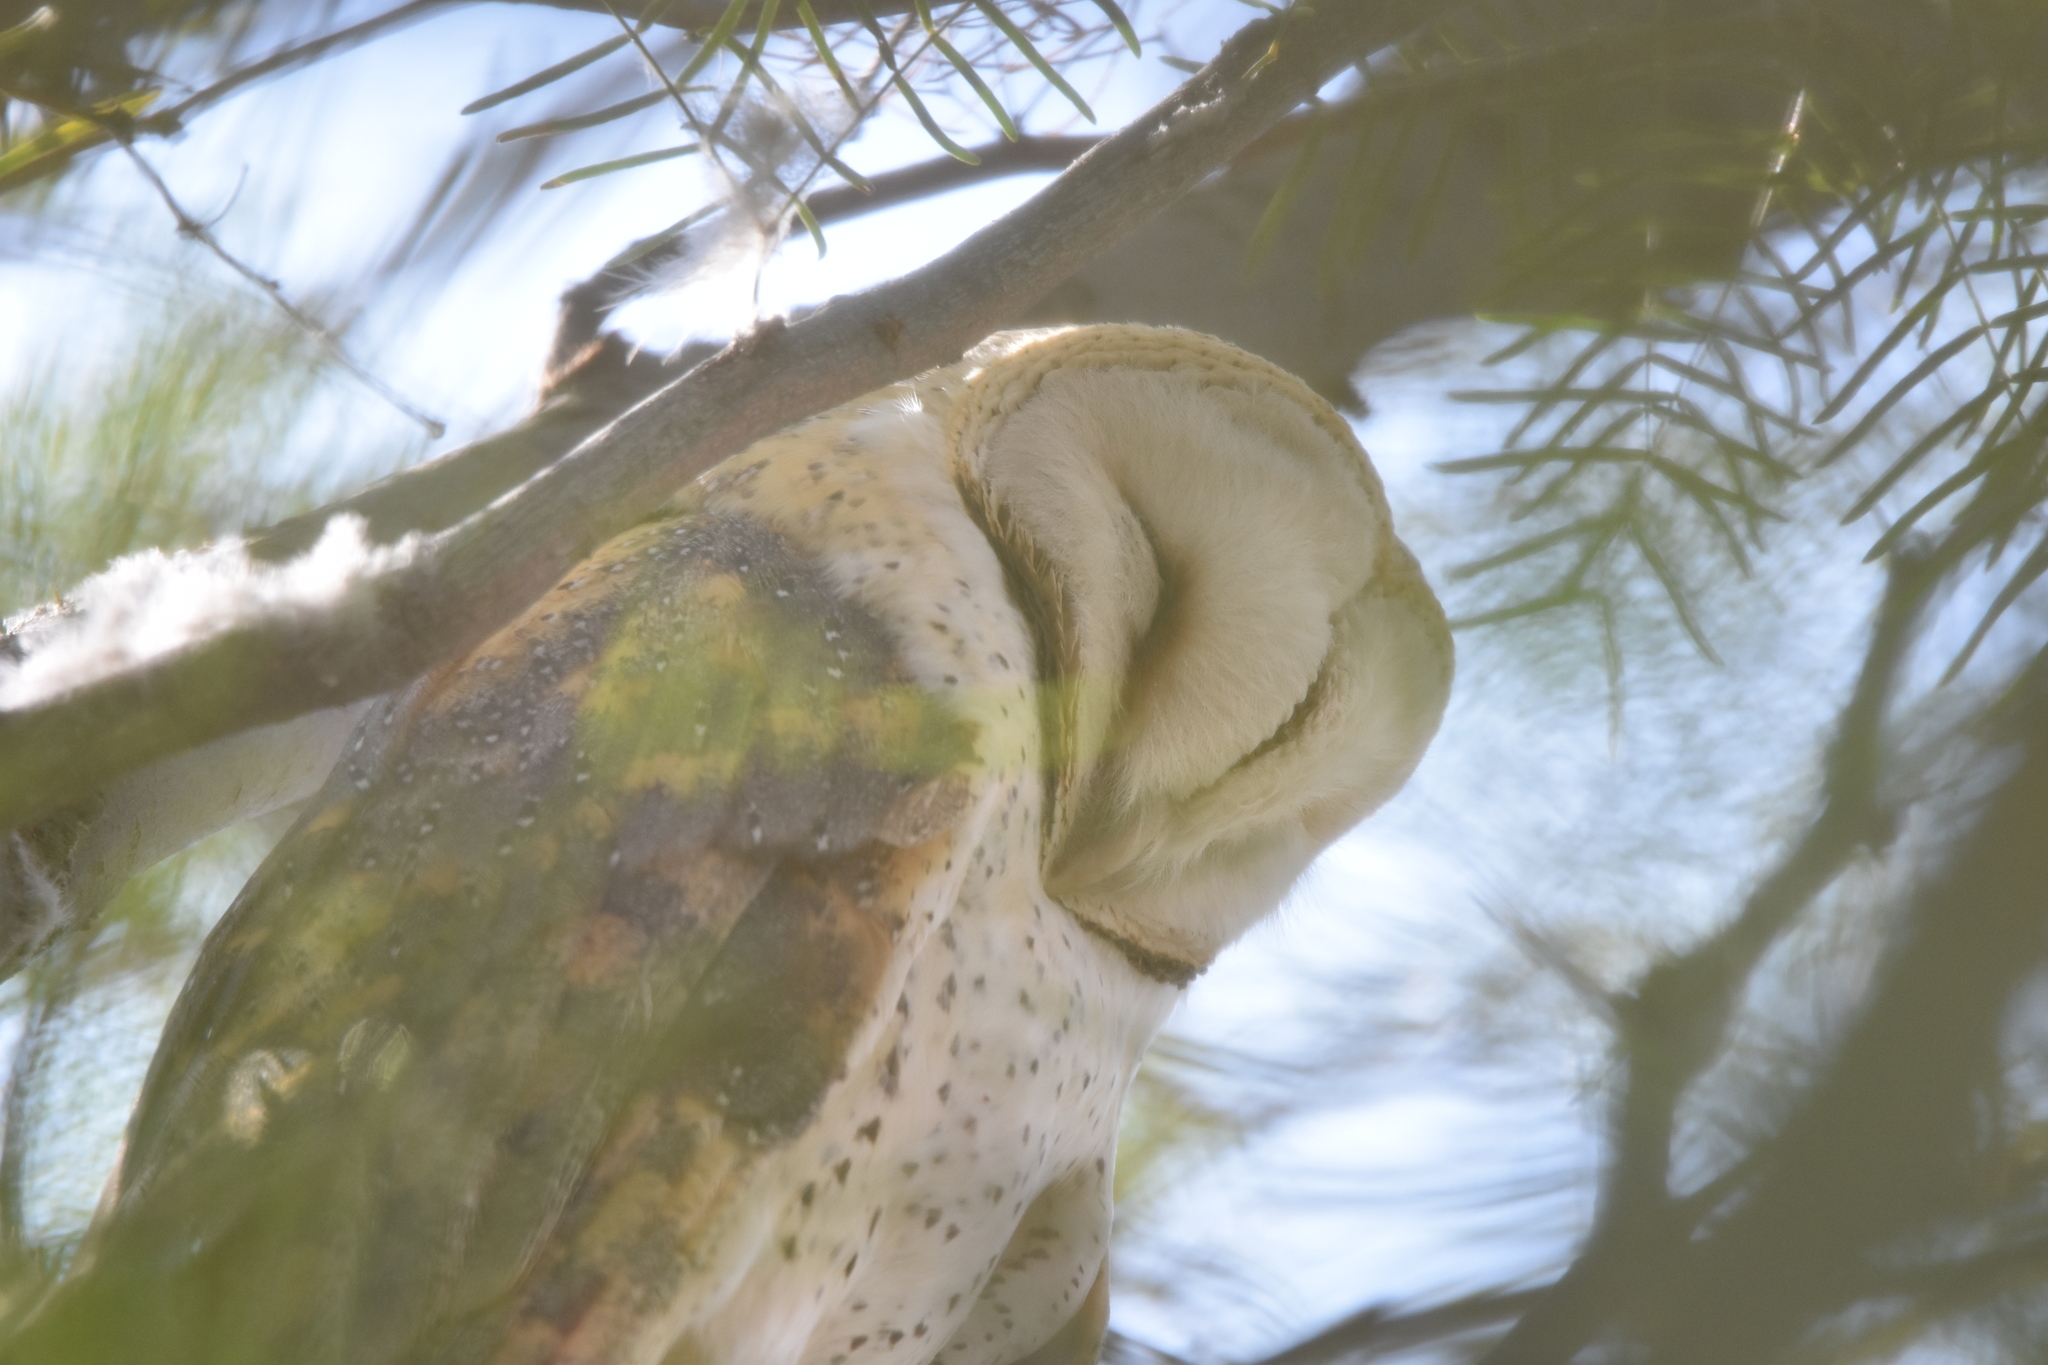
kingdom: Animalia
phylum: Chordata
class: Aves
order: Strigiformes
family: Tytonidae
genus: Tyto
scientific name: Tyto alba
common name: Barn owl
